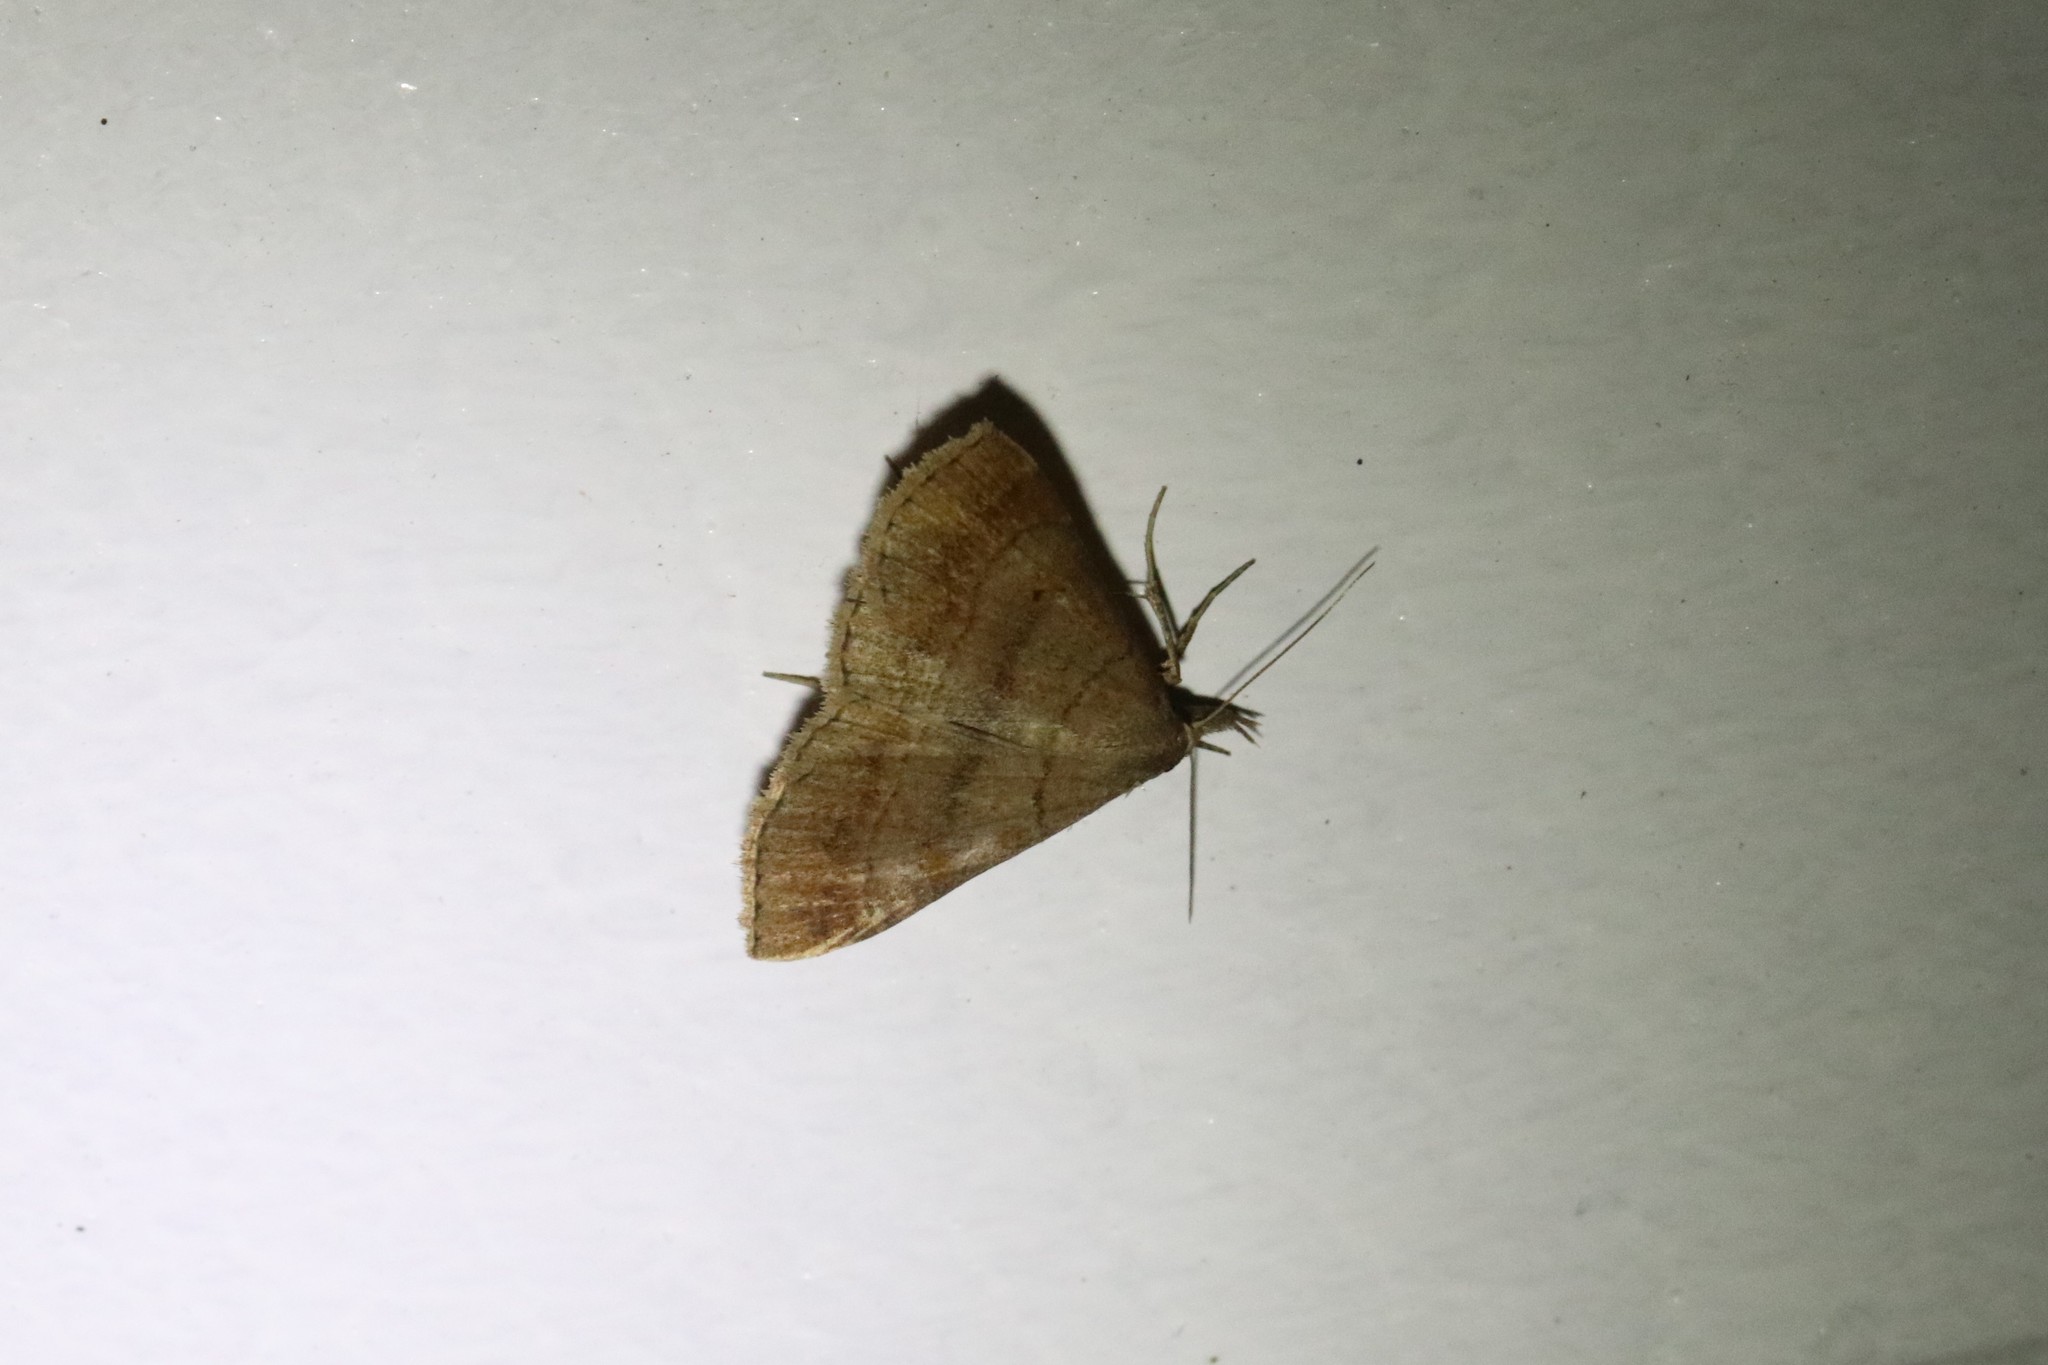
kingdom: Animalia
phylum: Arthropoda
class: Insecta
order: Lepidoptera
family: Erebidae
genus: Renia
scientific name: Renia flavipunctalis
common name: Yellow-spotted renia moth
